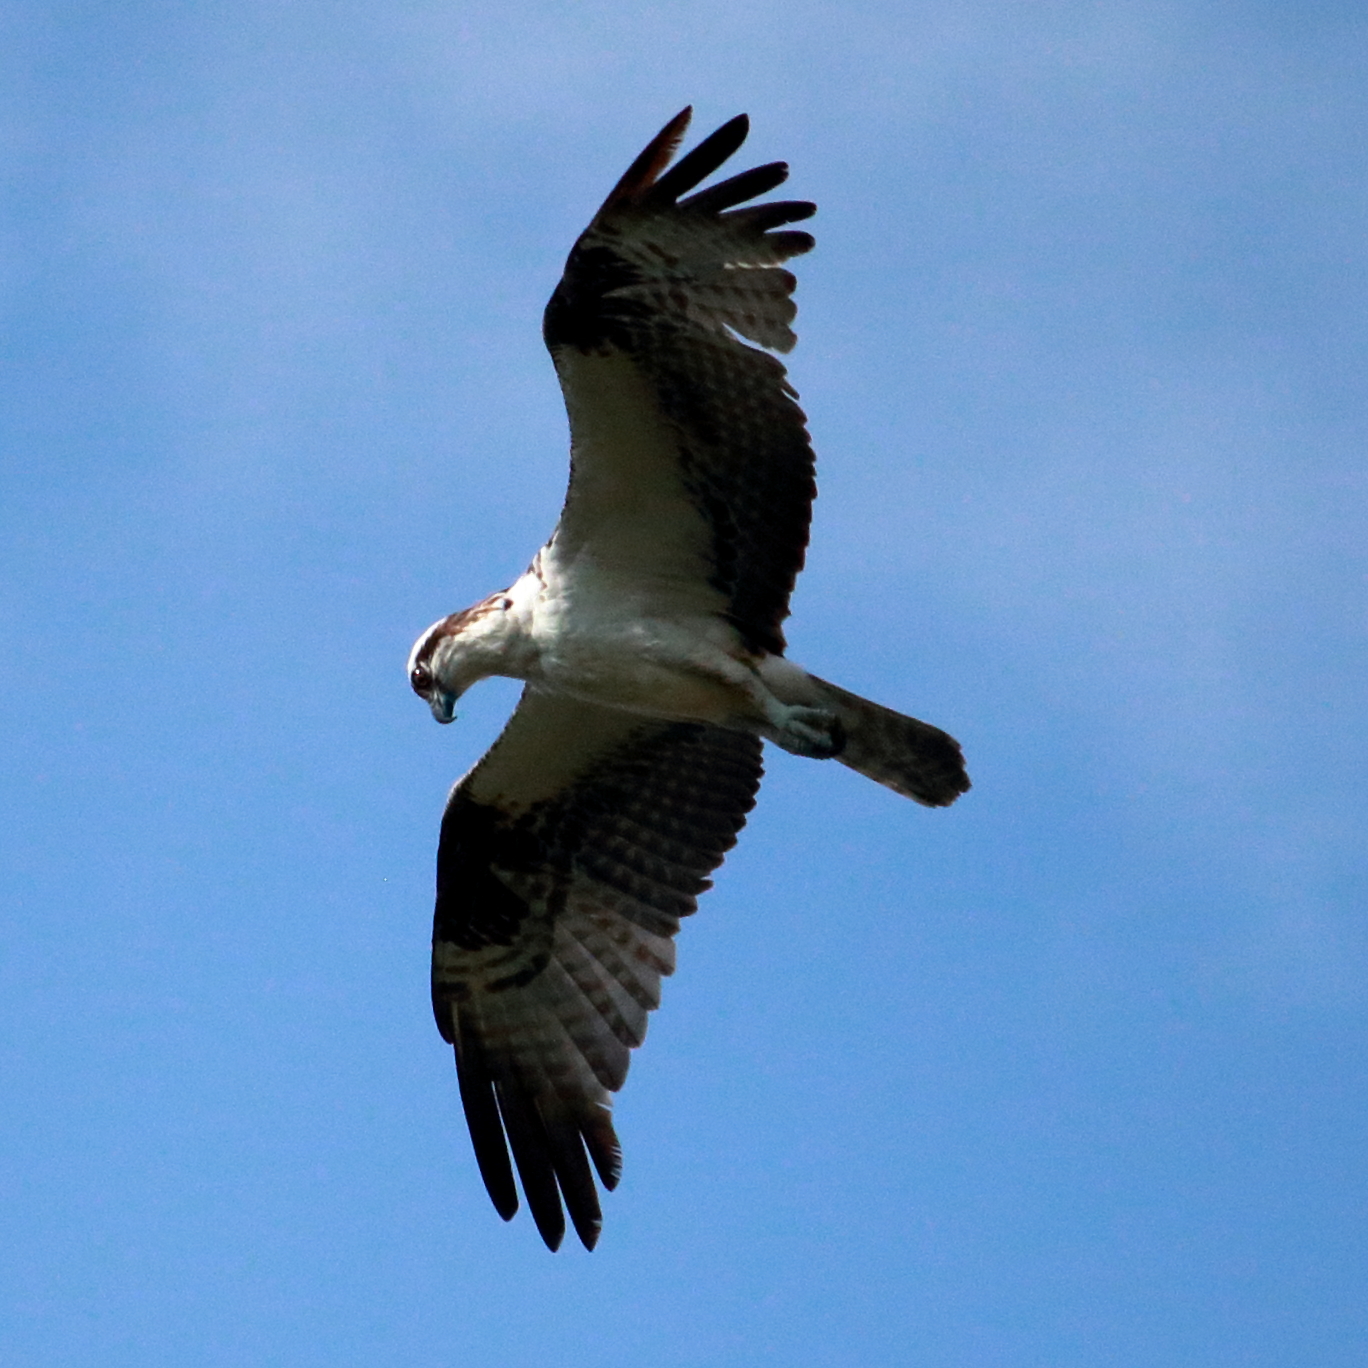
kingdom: Animalia
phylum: Chordata
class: Aves
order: Accipitriformes
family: Pandionidae
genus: Pandion
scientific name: Pandion haliaetus
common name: Osprey
